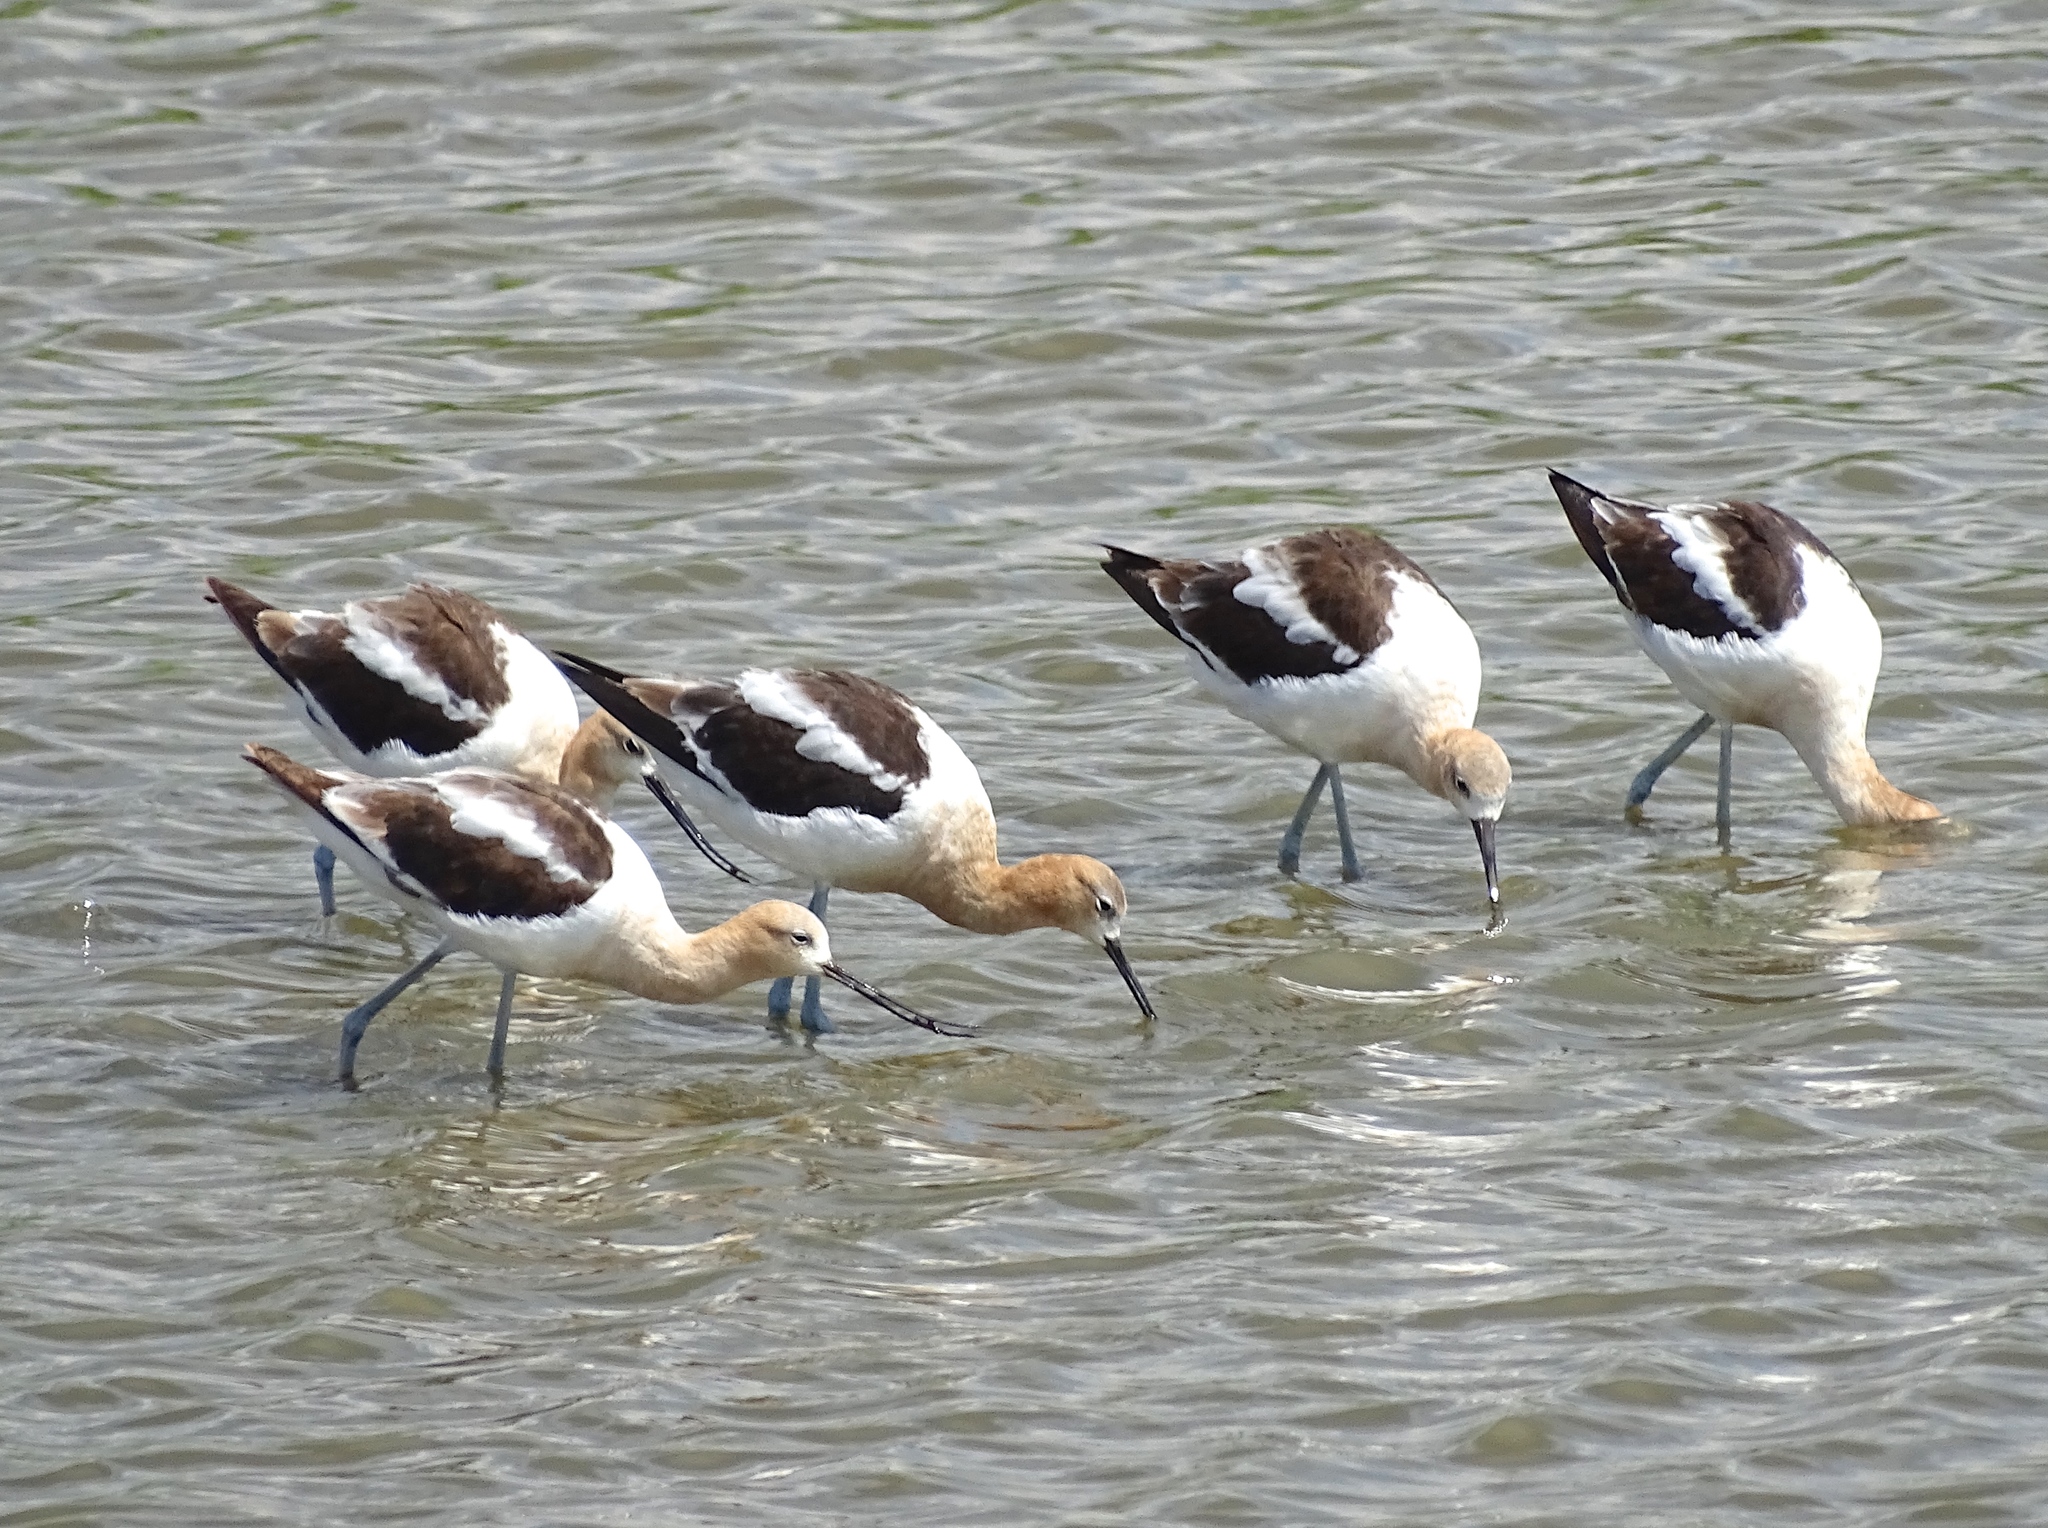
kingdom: Animalia
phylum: Chordata
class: Aves
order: Charadriiformes
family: Recurvirostridae
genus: Recurvirostra
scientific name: Recurvirostra americana
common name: American avocet
